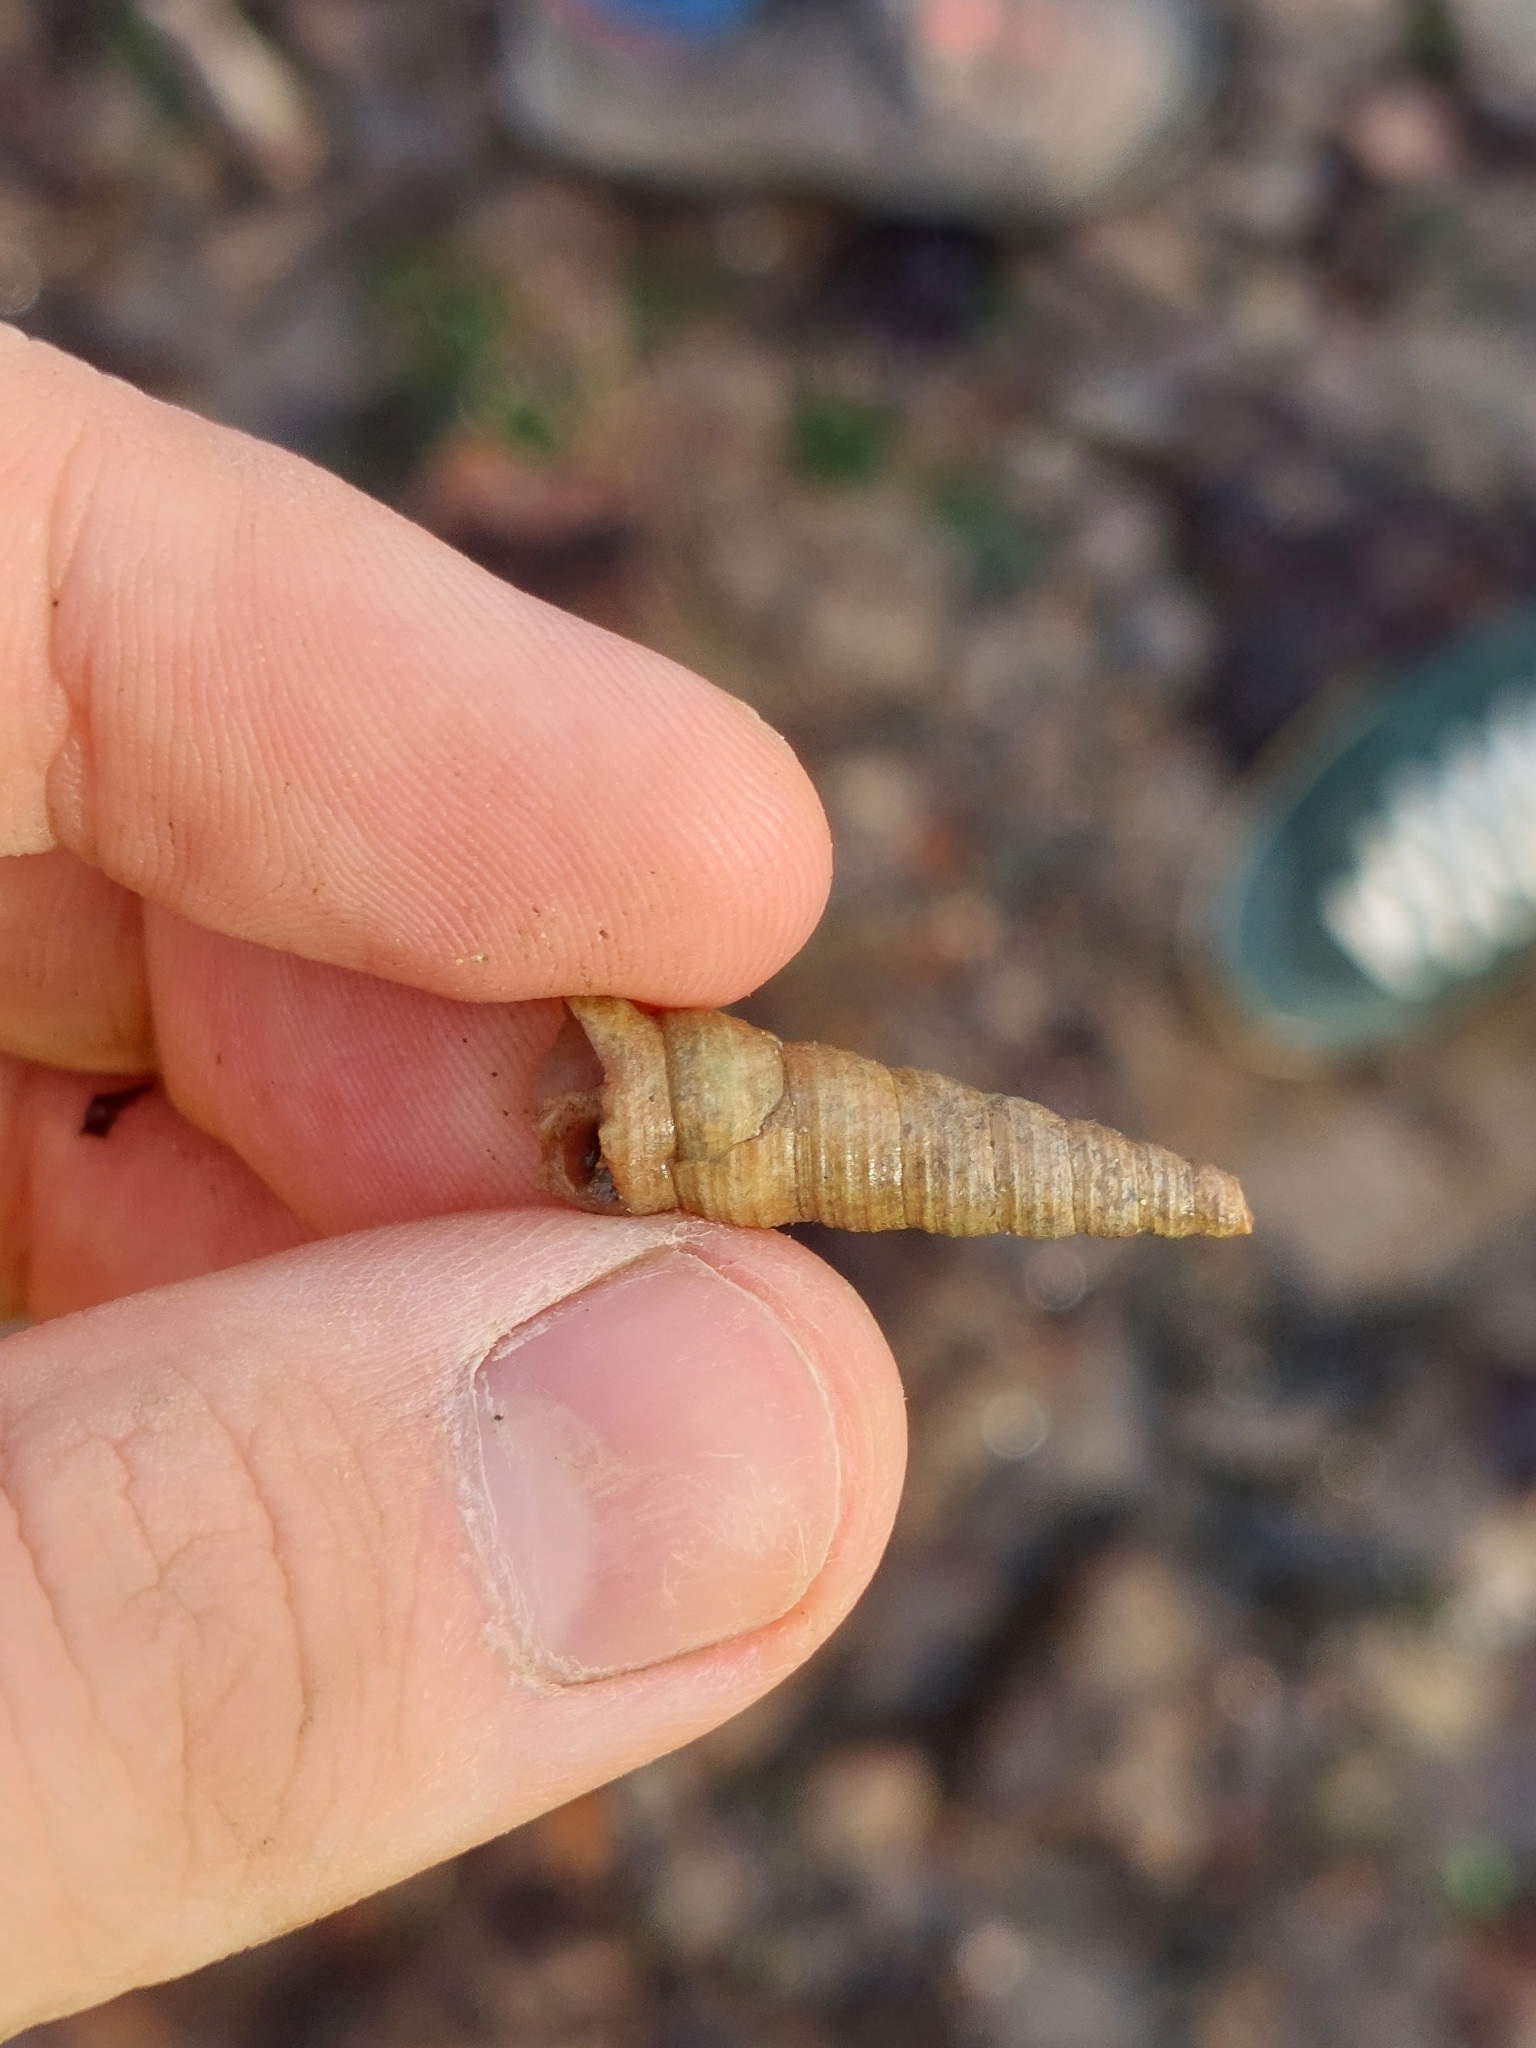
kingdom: Animalia
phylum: Mollusca
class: Gastropoda
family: Turritellidae
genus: Turritellinella
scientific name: Turritellinella tricarinata
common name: Auger shell
